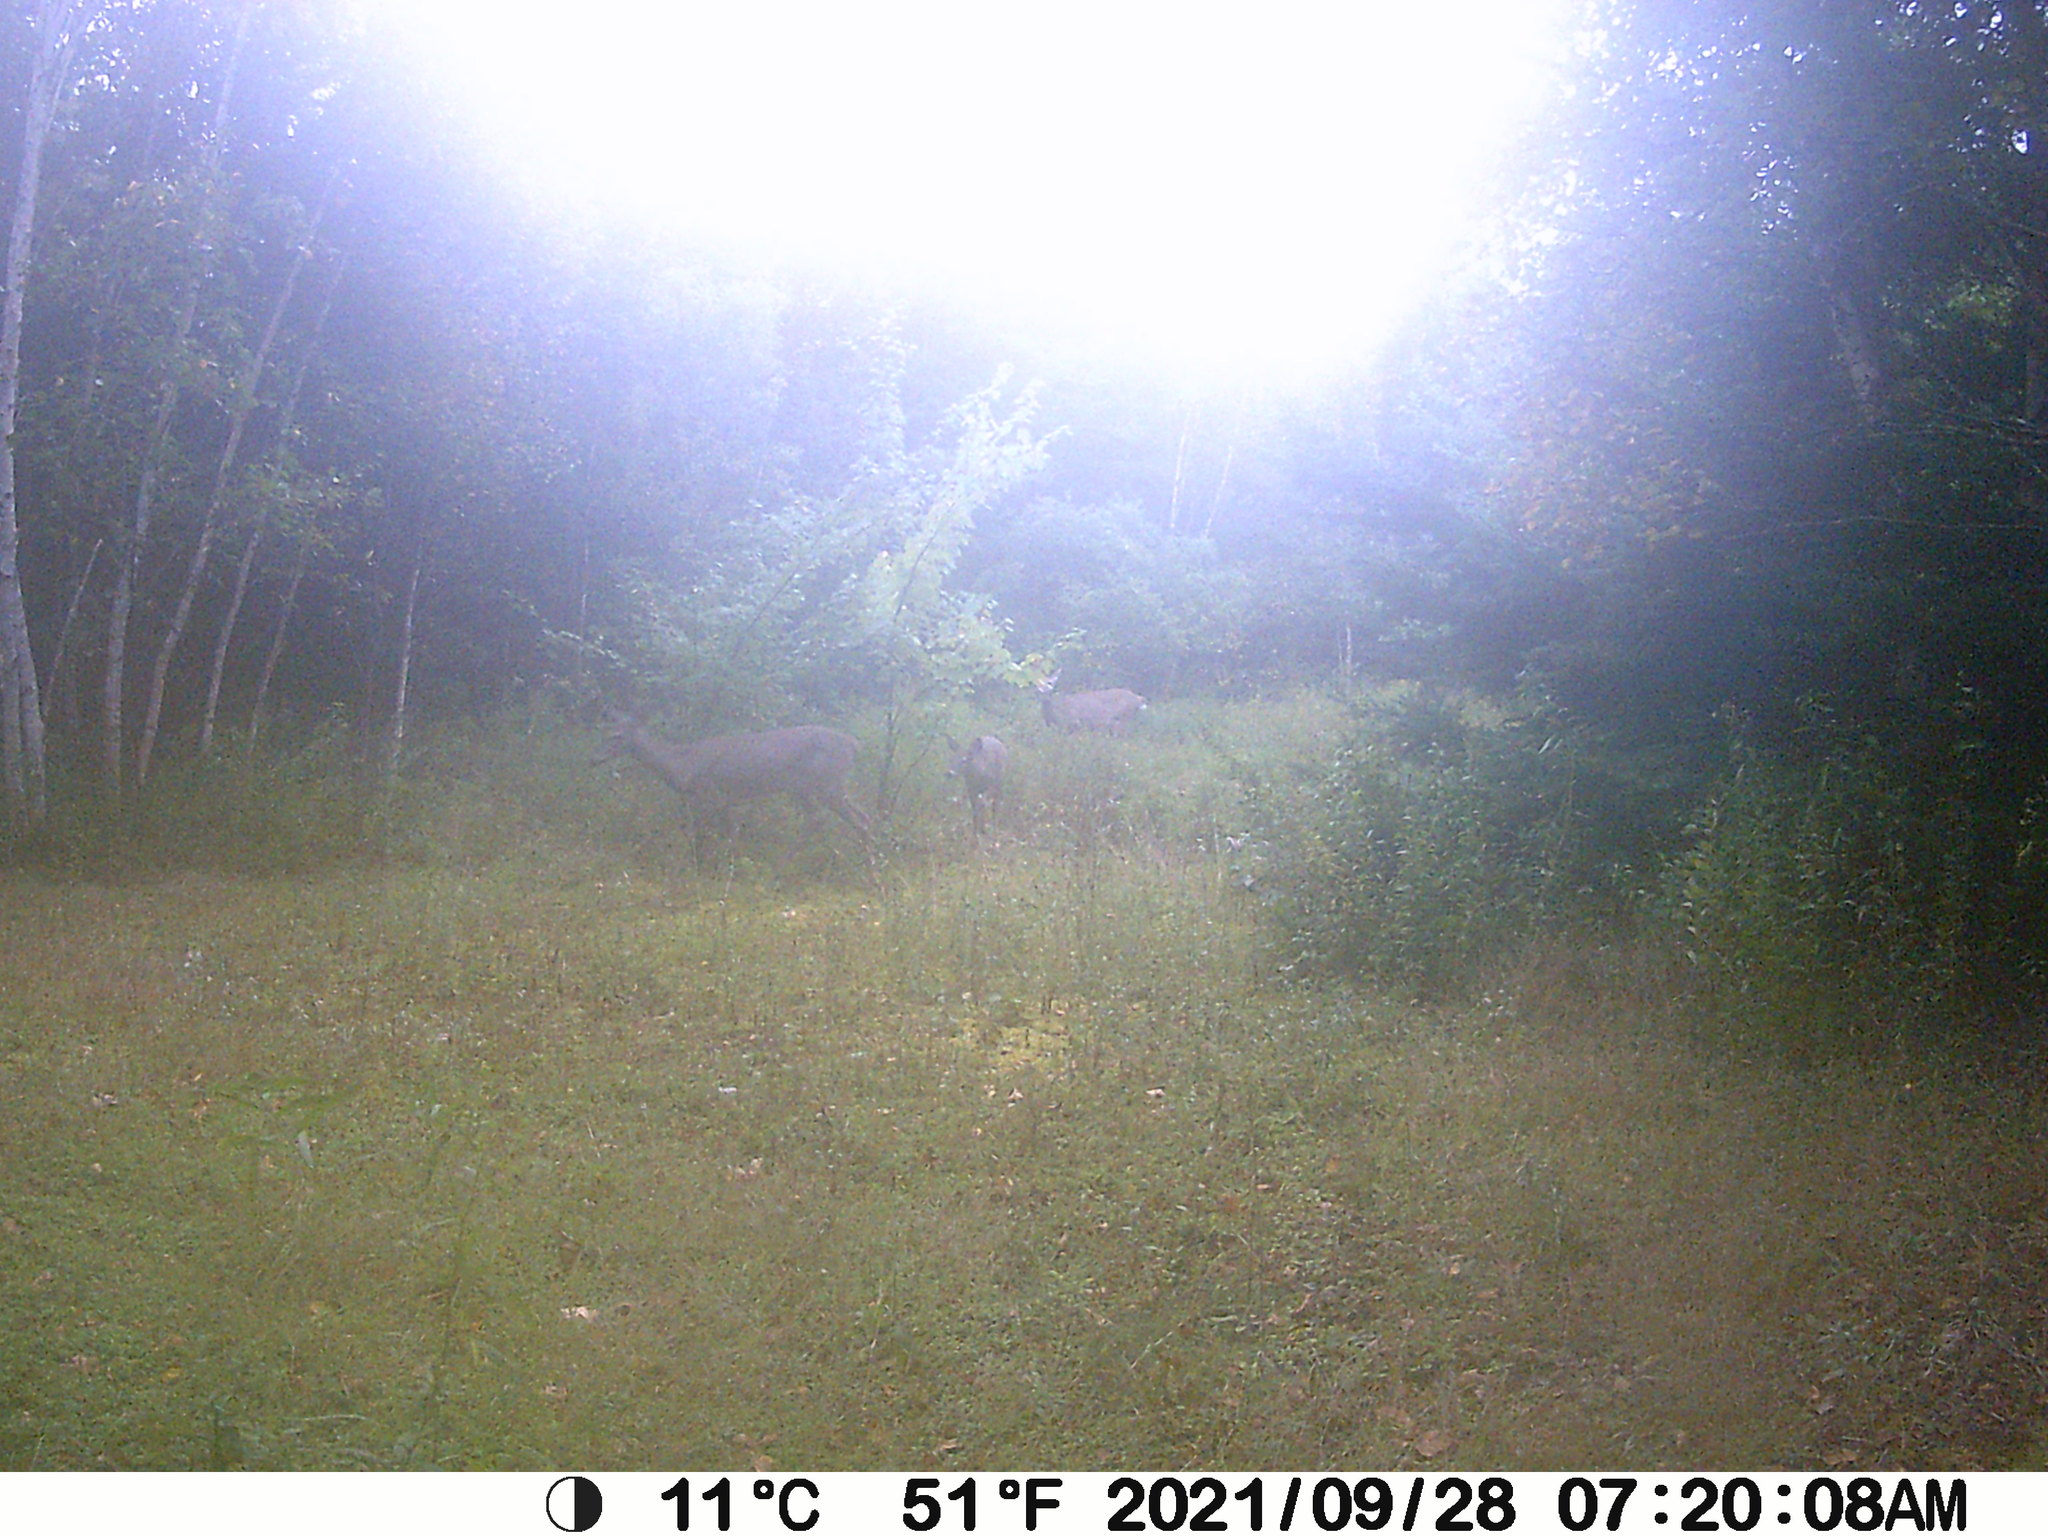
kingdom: Animalia
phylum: Chordata
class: Mammalia
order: Artiodactyla
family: Cervidae
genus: Odocoileus
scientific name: Odocoileus virginianus
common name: White-tailed deer
